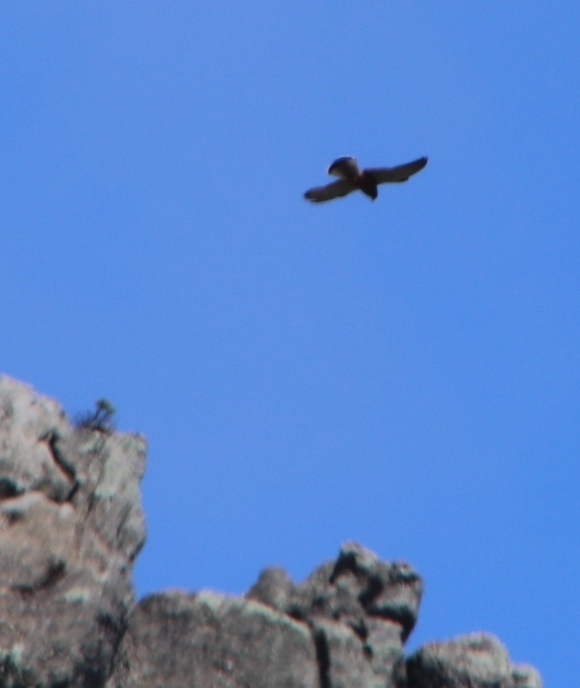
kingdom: Animalia
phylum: Chordata
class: Aves
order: Falconiformes
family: Falconidae
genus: Falco
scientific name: Falco rupicolus
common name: Rock kestrel
